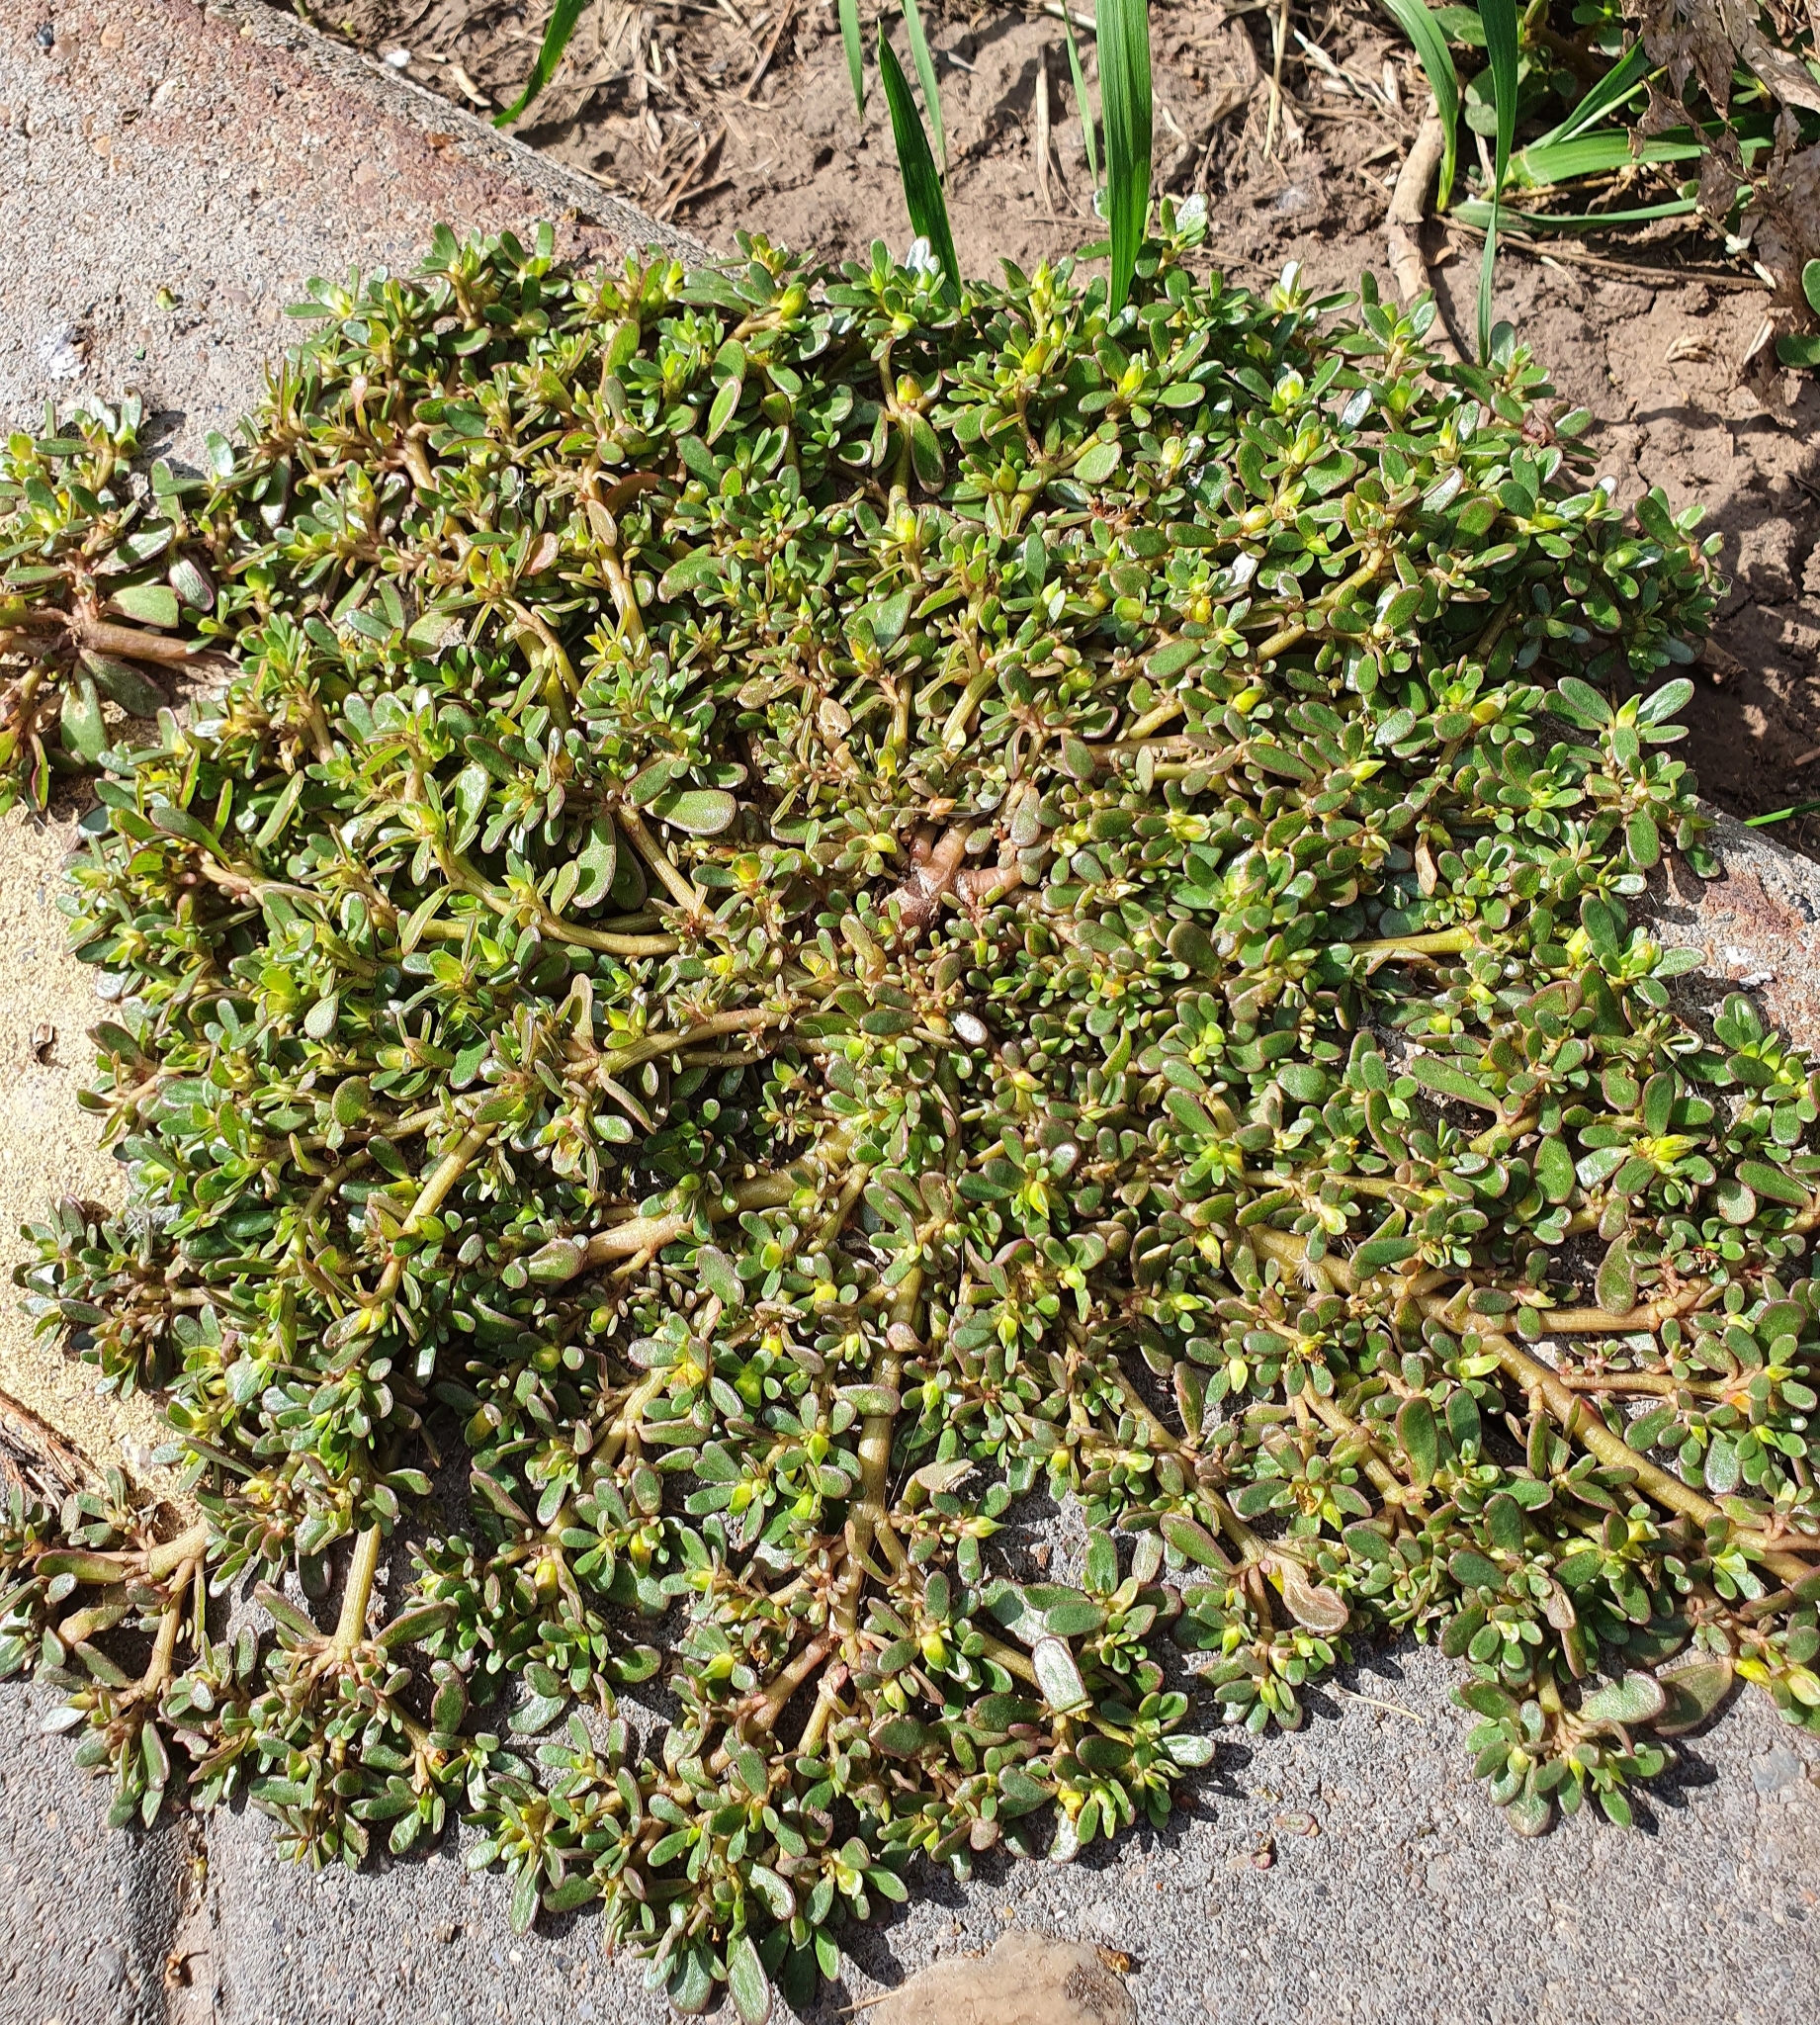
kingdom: Plantae
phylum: Tracheophyta
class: Magnoliopsida
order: Caryophyllales
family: Portulacaceae
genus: Portulaca
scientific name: Portulaca oleracea
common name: Common purslane
